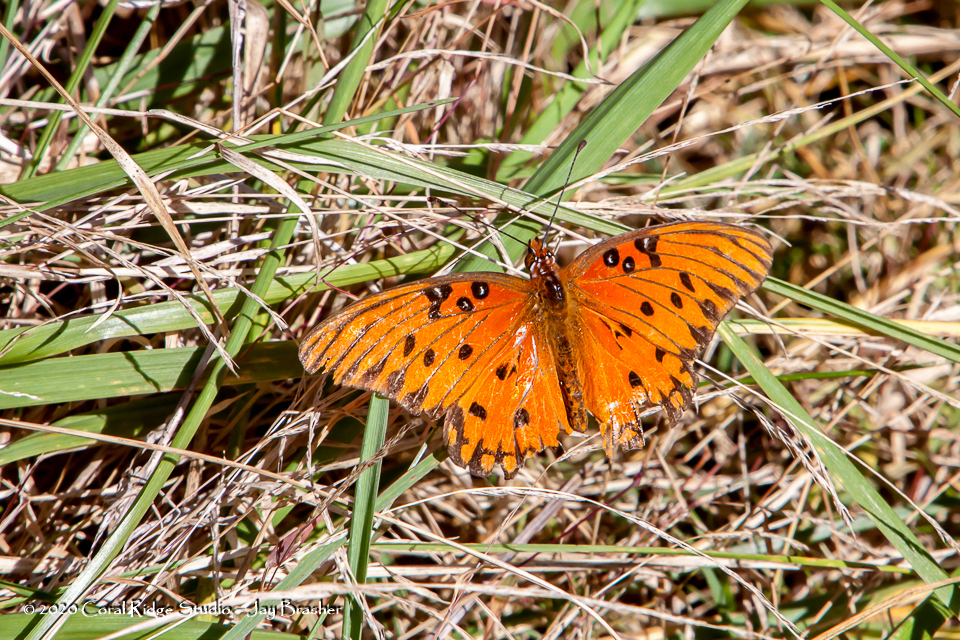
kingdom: Animalia
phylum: Arthropoda
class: Insecta
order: Lepidoptera
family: Nymphalidae
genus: Dione
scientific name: Dione vanillae
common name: Gulf fritillary
